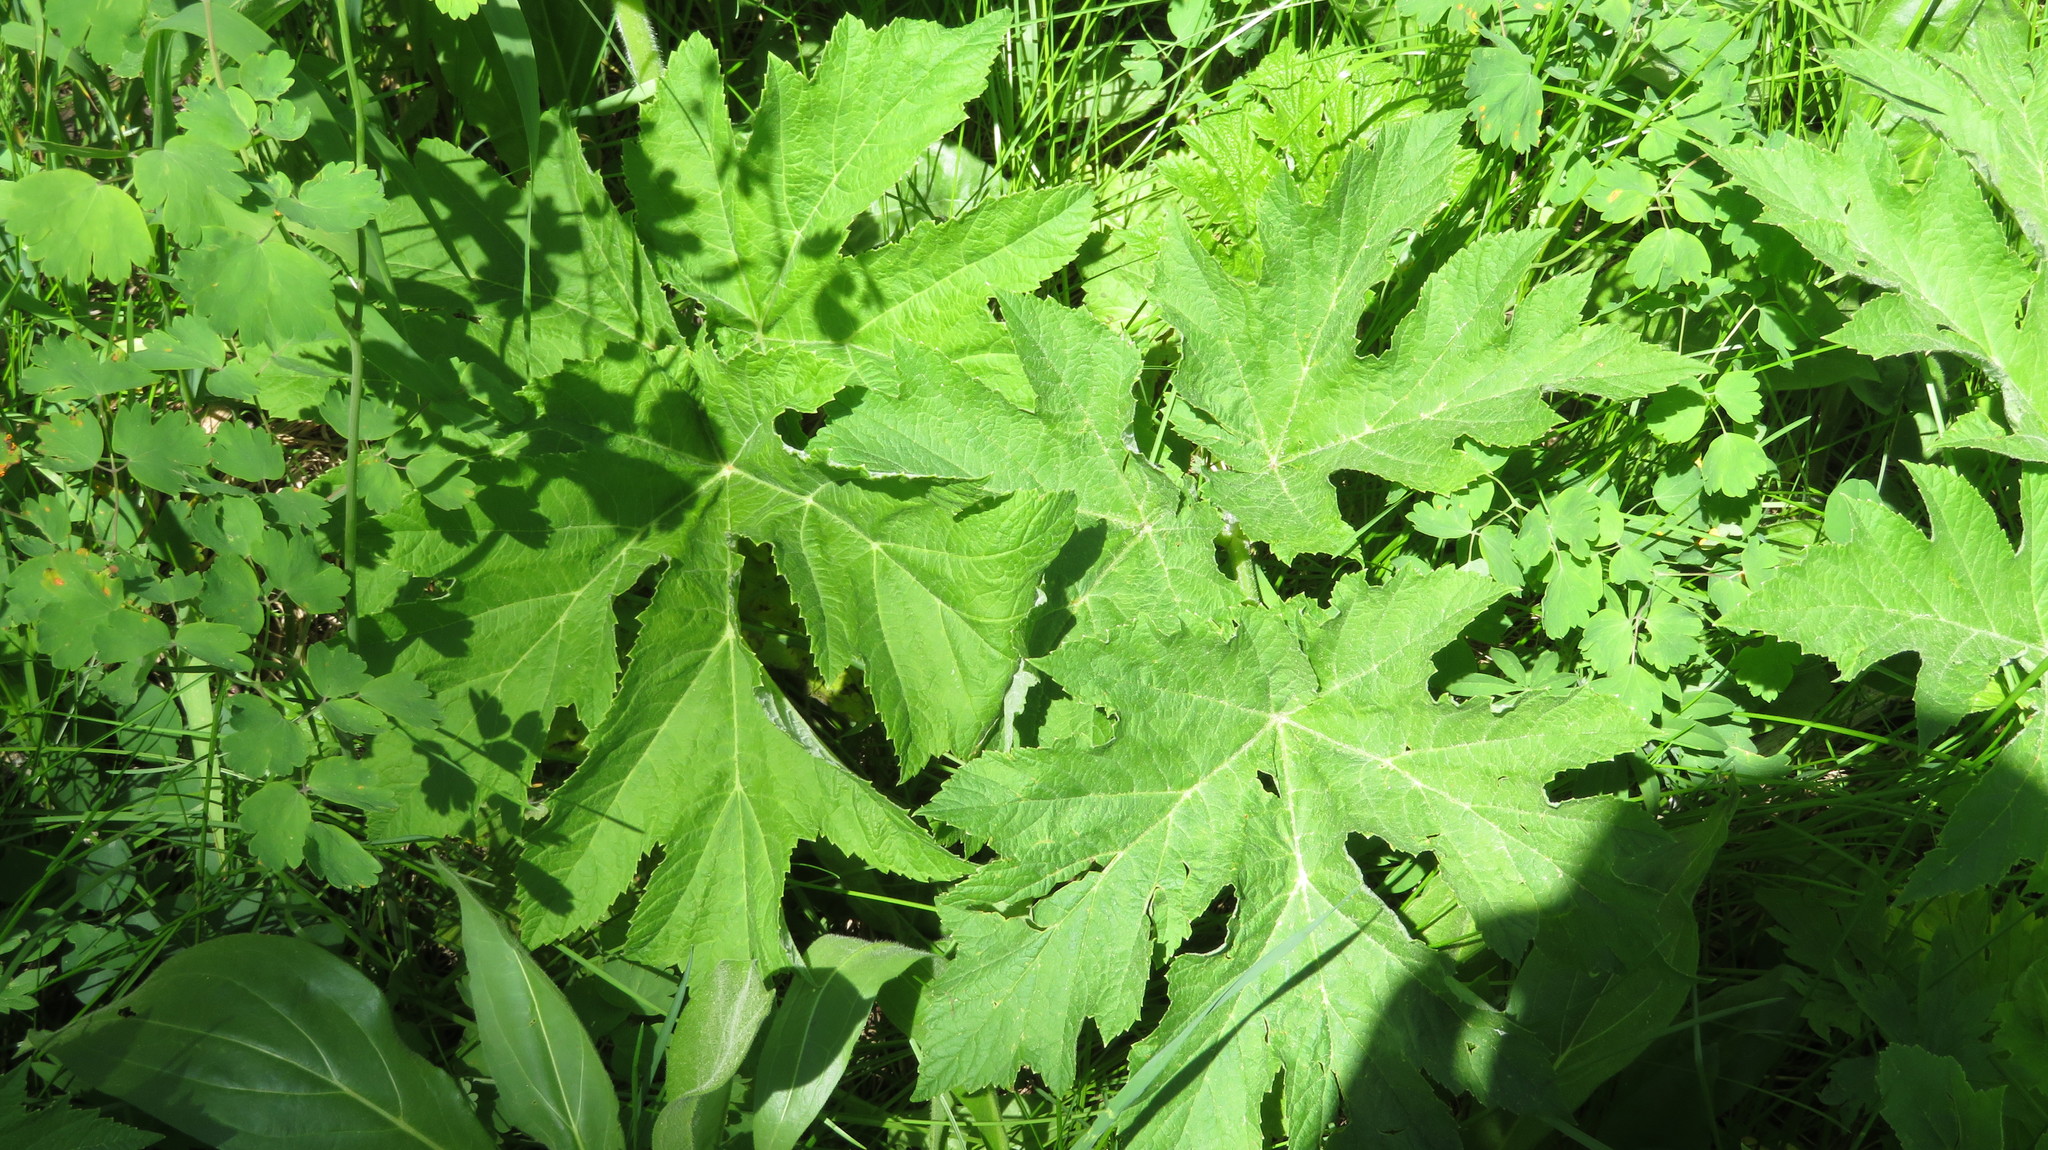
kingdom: Plantae
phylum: Tracheophyta
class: Magnoliopsida
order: Apiales
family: Apiaceae
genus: Heracleum
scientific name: Heracleum maximum
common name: American cow parsnip
